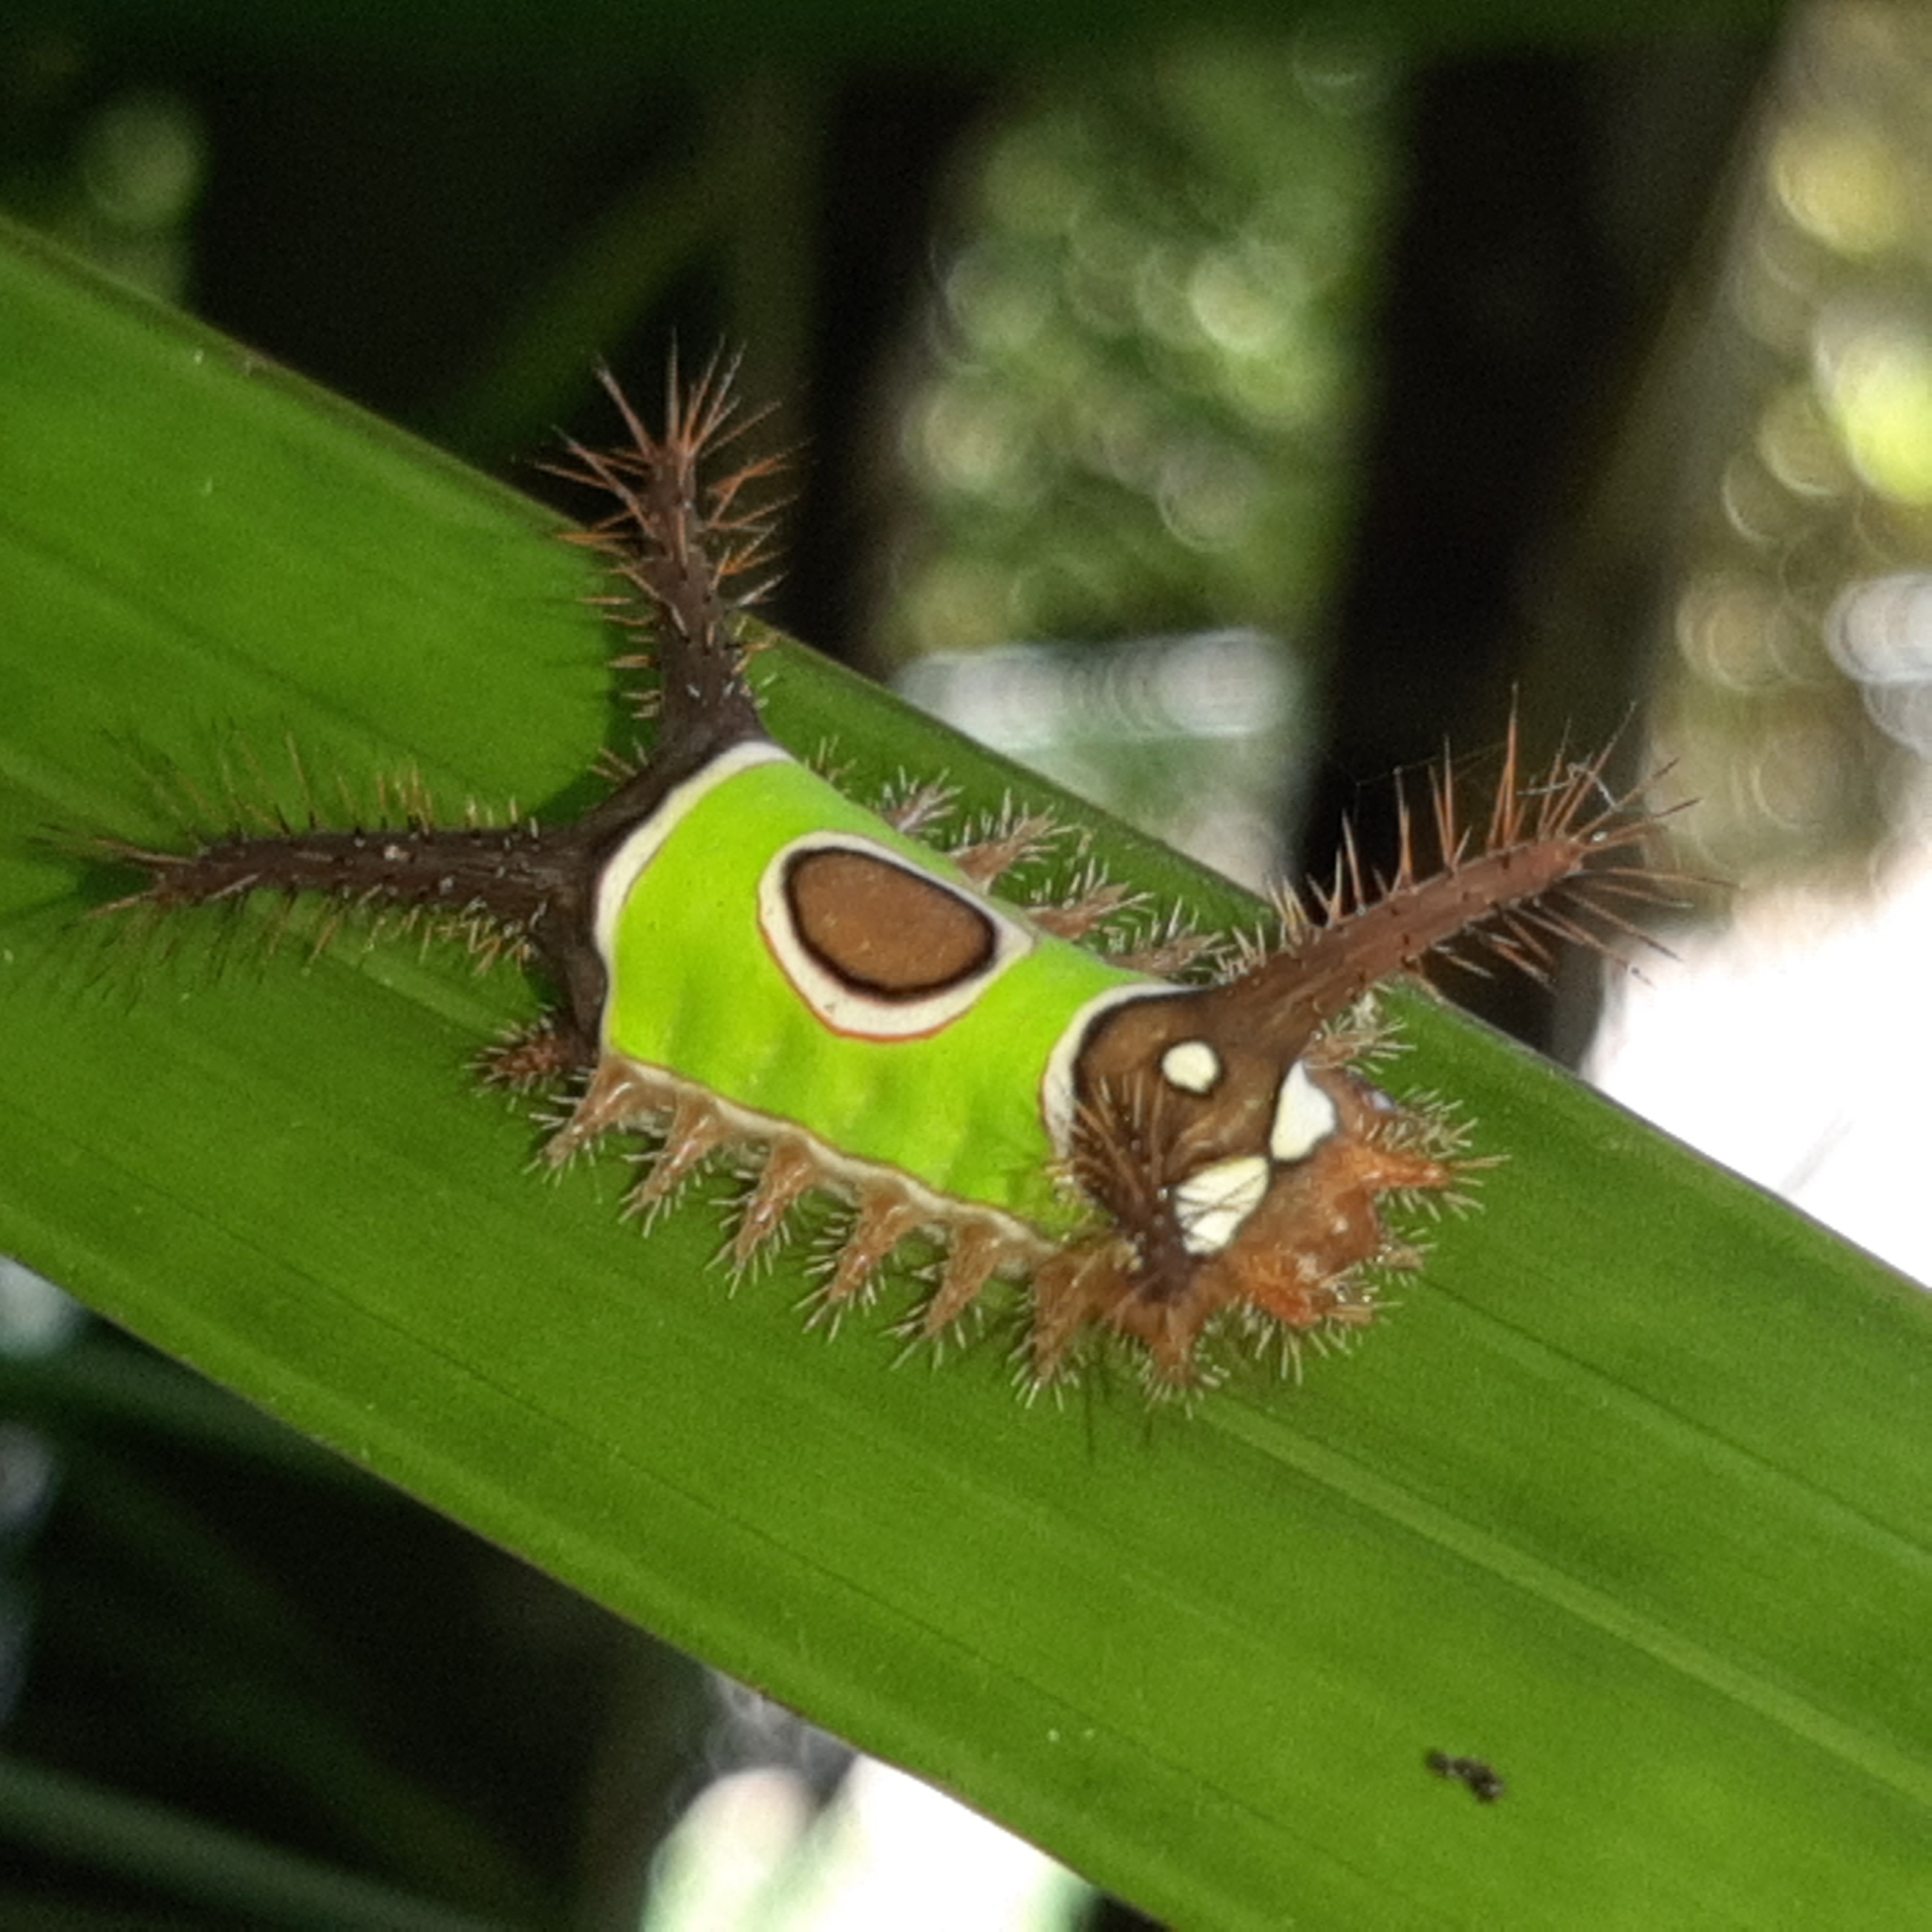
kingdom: Animalia
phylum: Arthropoda
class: Insecta
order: Lepidoptera
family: Limacodidae
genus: Sibine
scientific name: Sibine apicalis
